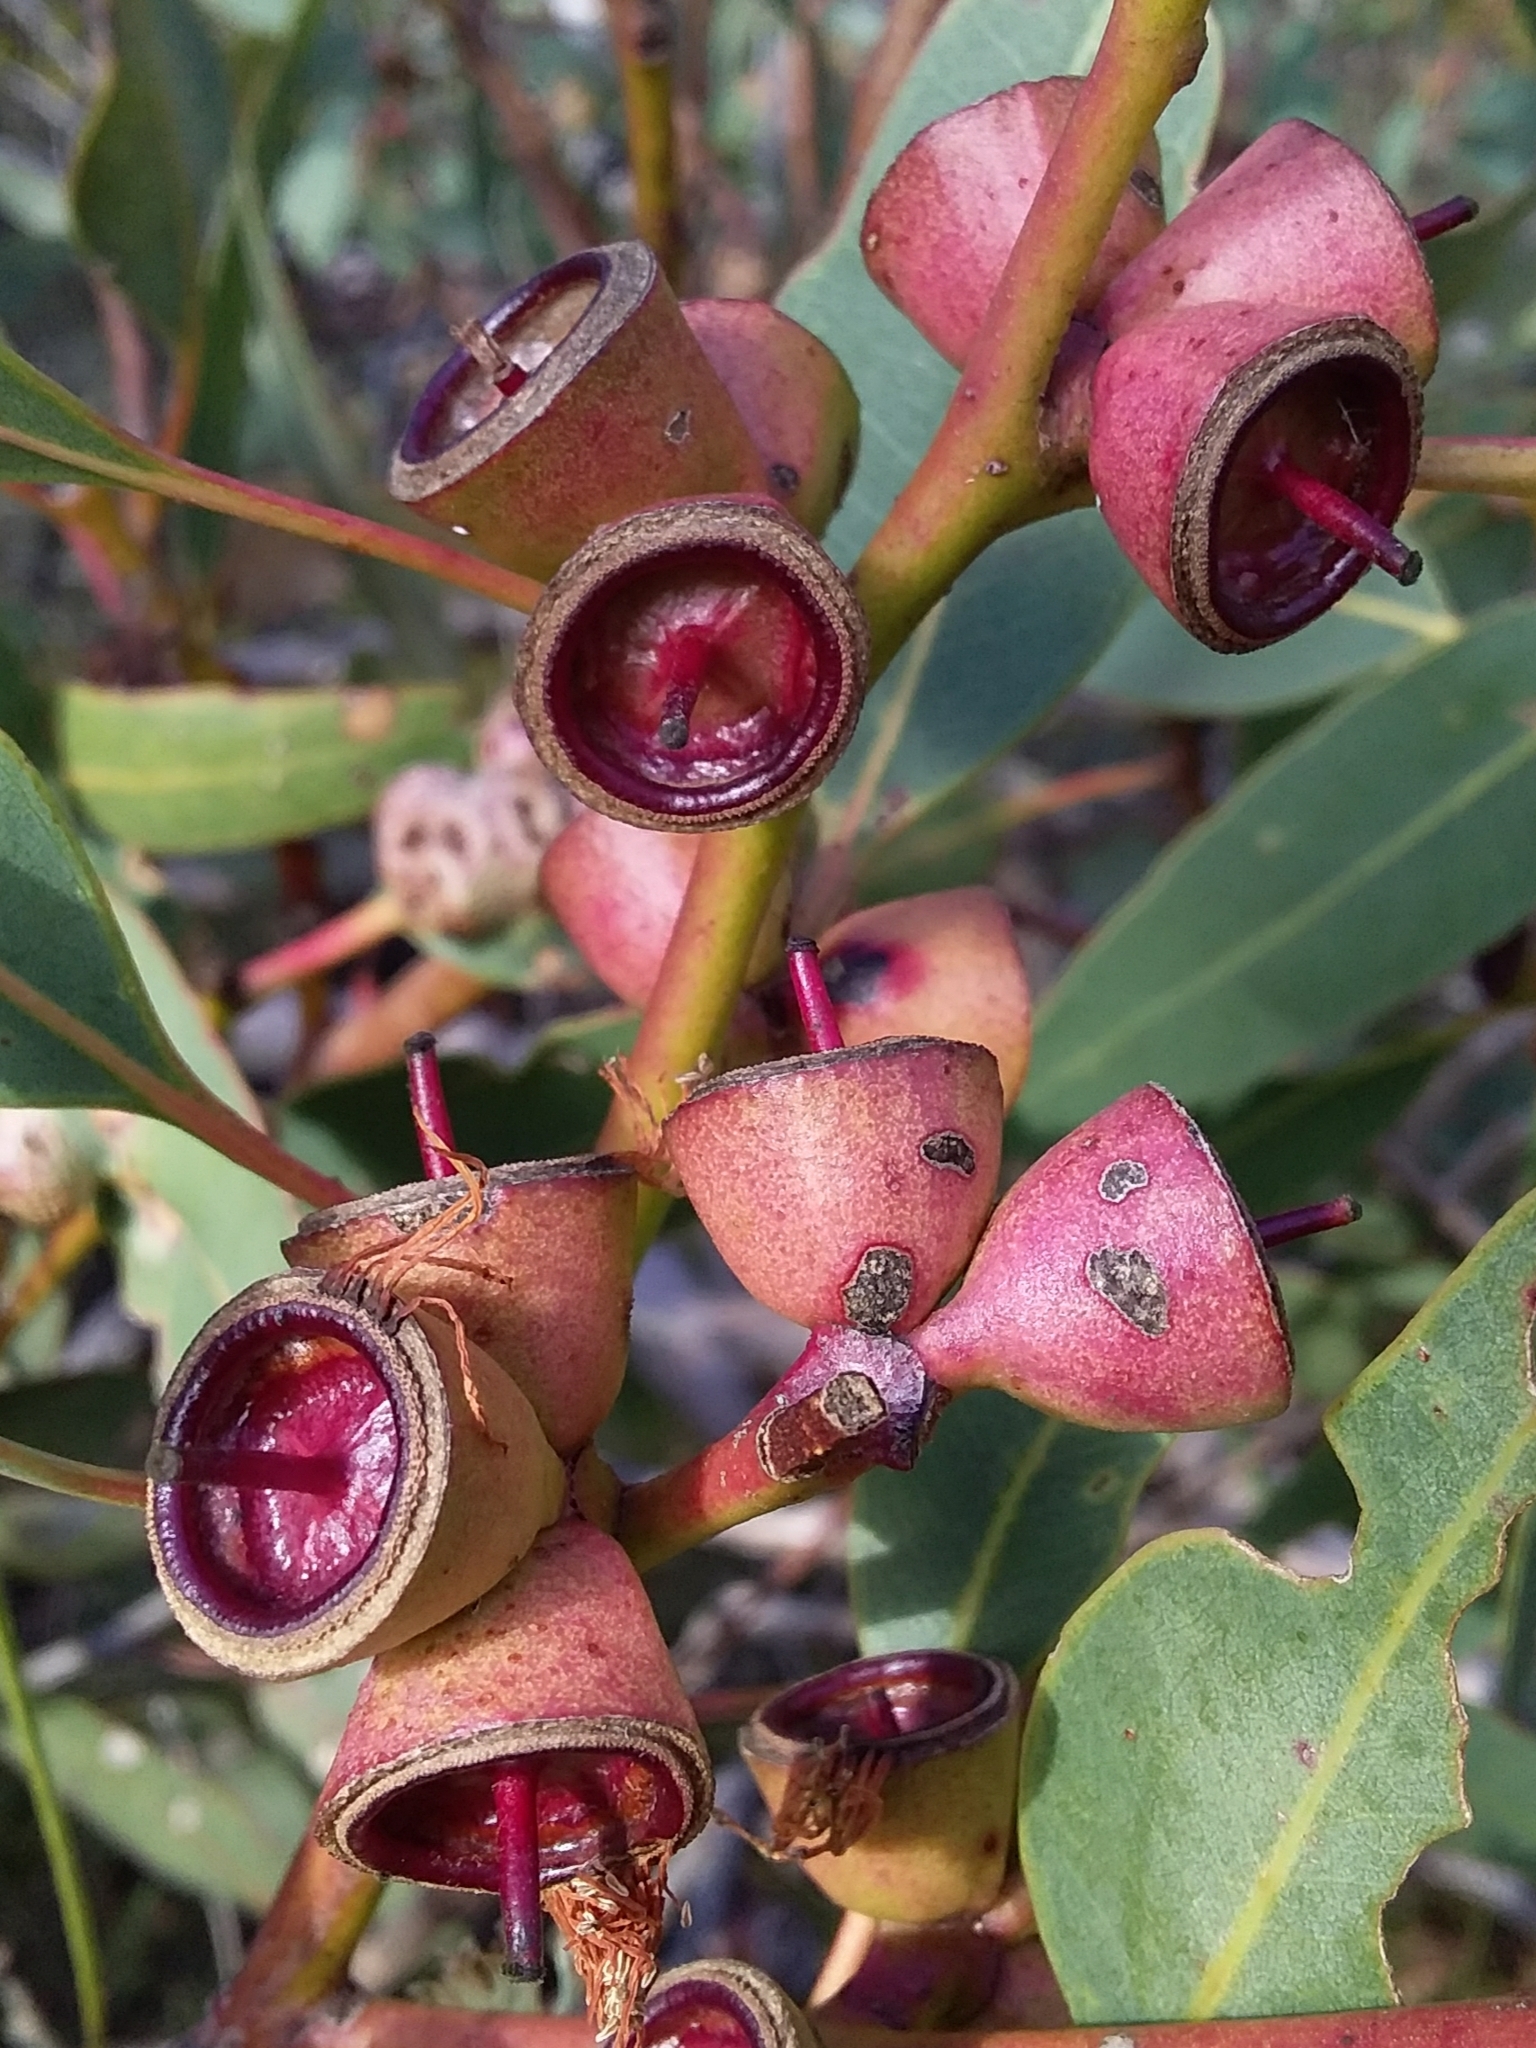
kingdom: Plantae
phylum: Tracheophyta
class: Magnoliopsida
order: Myrtales
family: Myrtaceae
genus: Eucalyptus
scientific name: Eucalyptus cosmophylla
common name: Bog-gum
